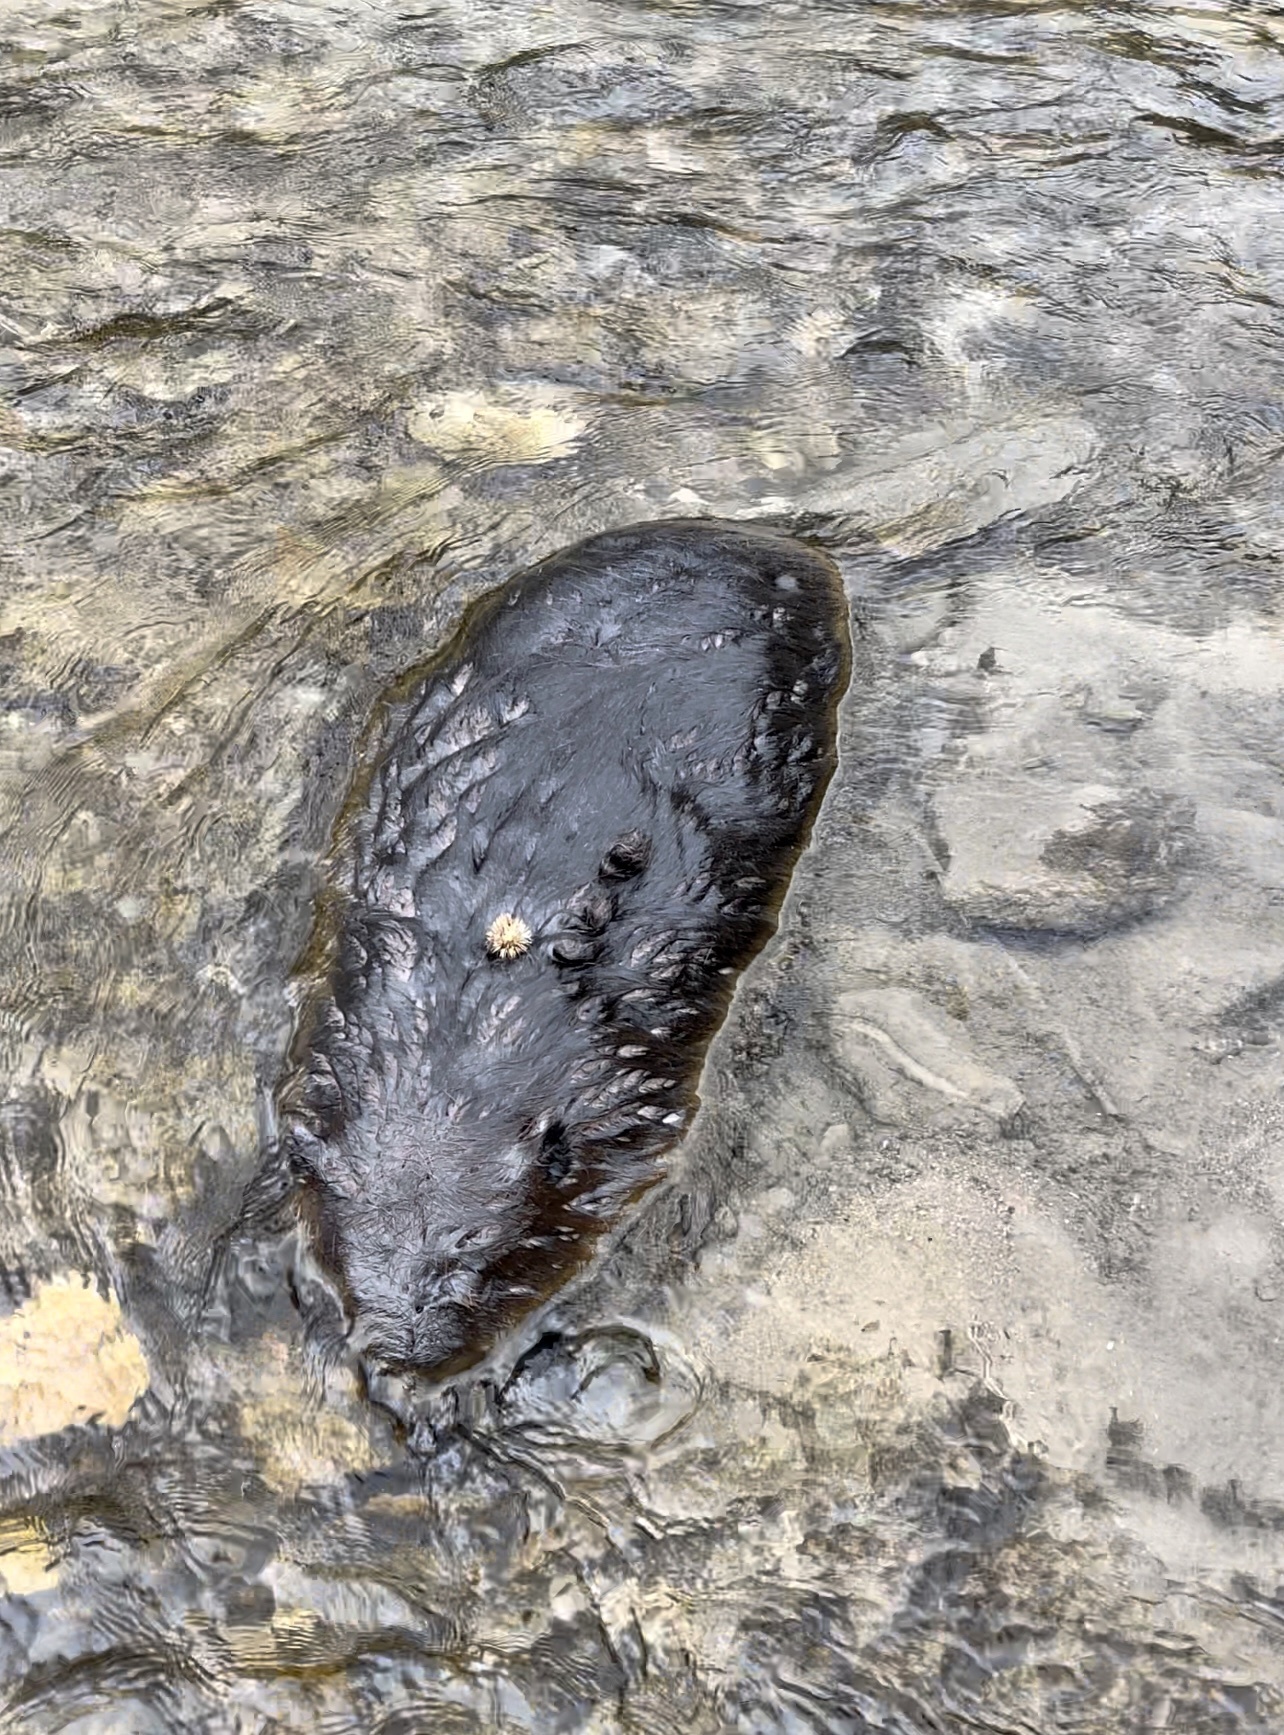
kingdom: Animalia
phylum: Chordata
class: Mammalia
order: Rodentia
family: Castoridae
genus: Castor
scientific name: Castor canadensis
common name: American beaver
